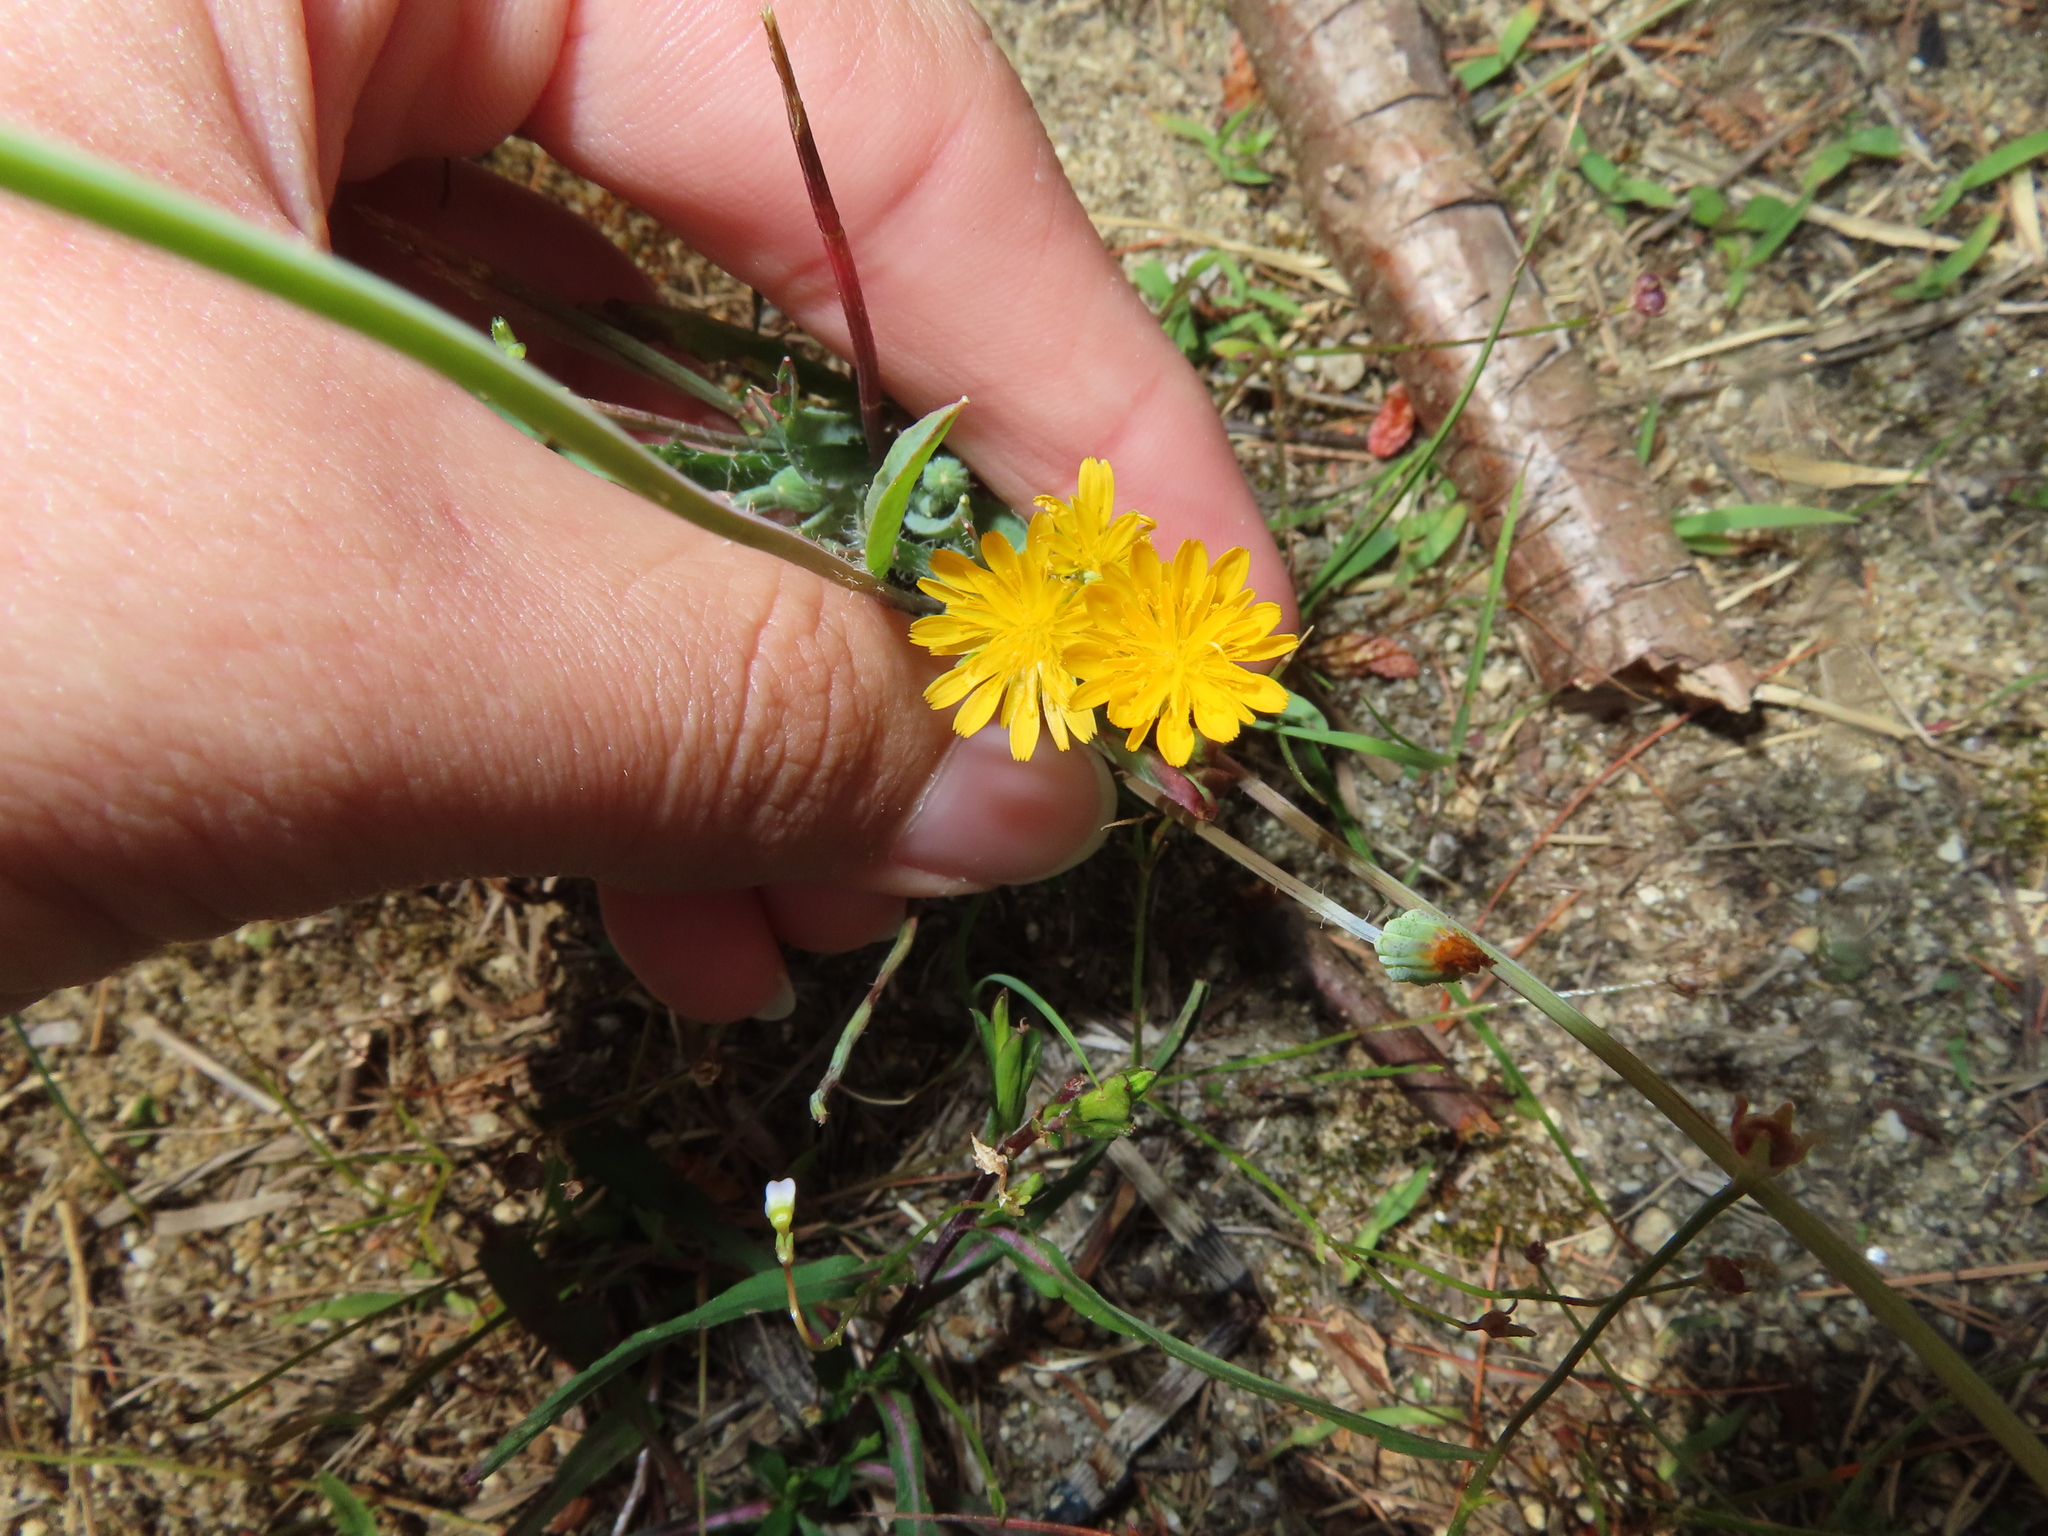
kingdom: Plantae
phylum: Tracheophyta
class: Magnoliopsida
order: Asterales
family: Asteraceae
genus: Krigia
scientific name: Krigia virginica
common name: Virginia dwarf-dandelion
